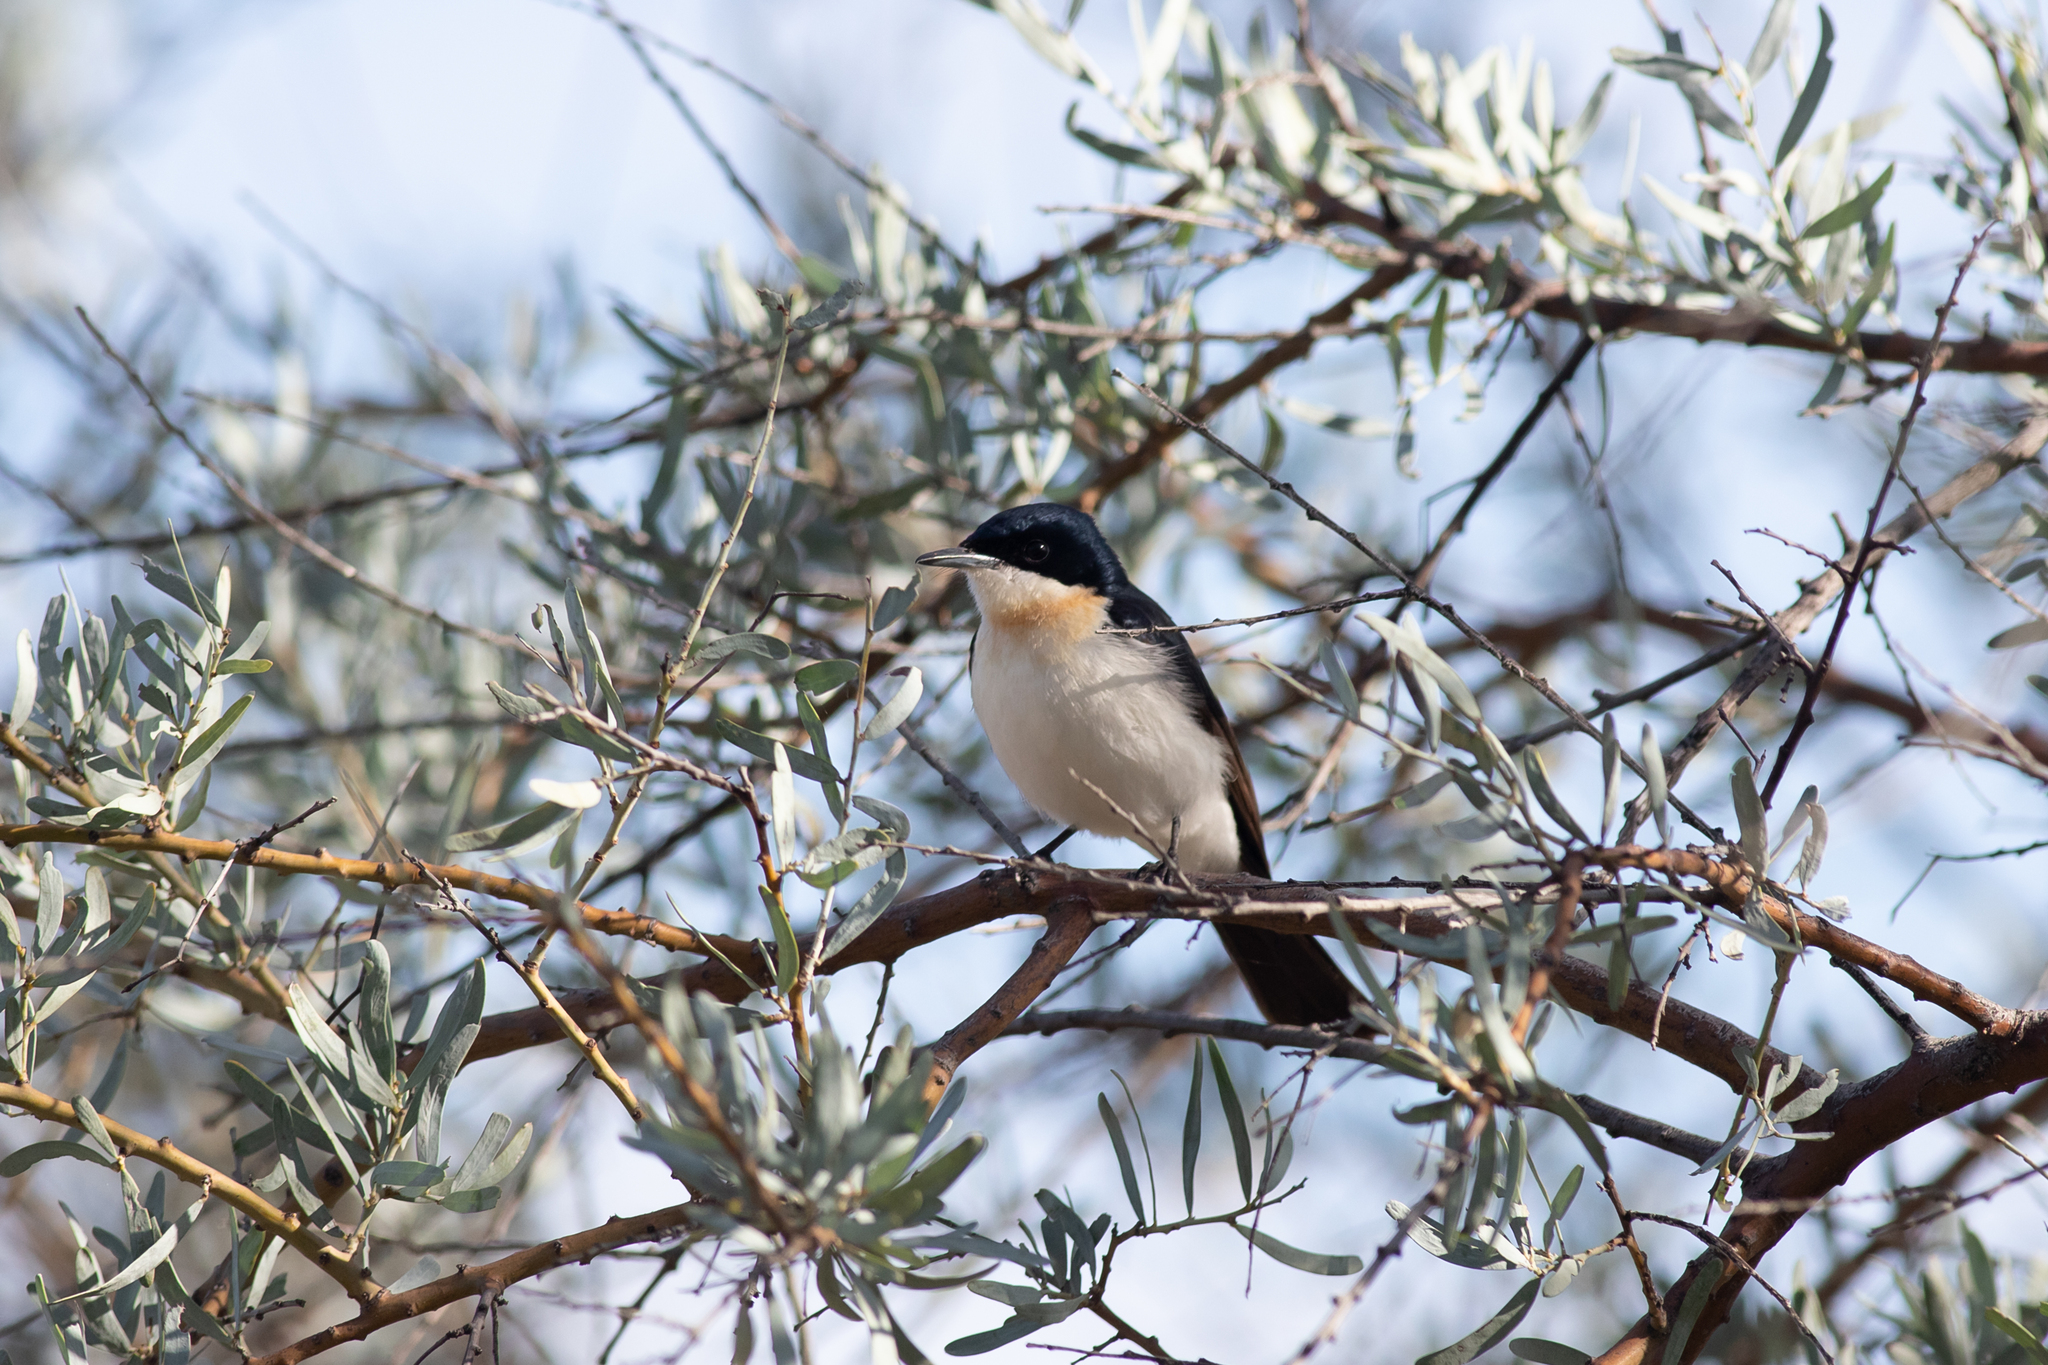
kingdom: Animalia
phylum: Chordata
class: Aves
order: Passeriformes
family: Monarchidae
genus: Myiagra
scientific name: Myiagra inquieta
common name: Restless flycatcher
